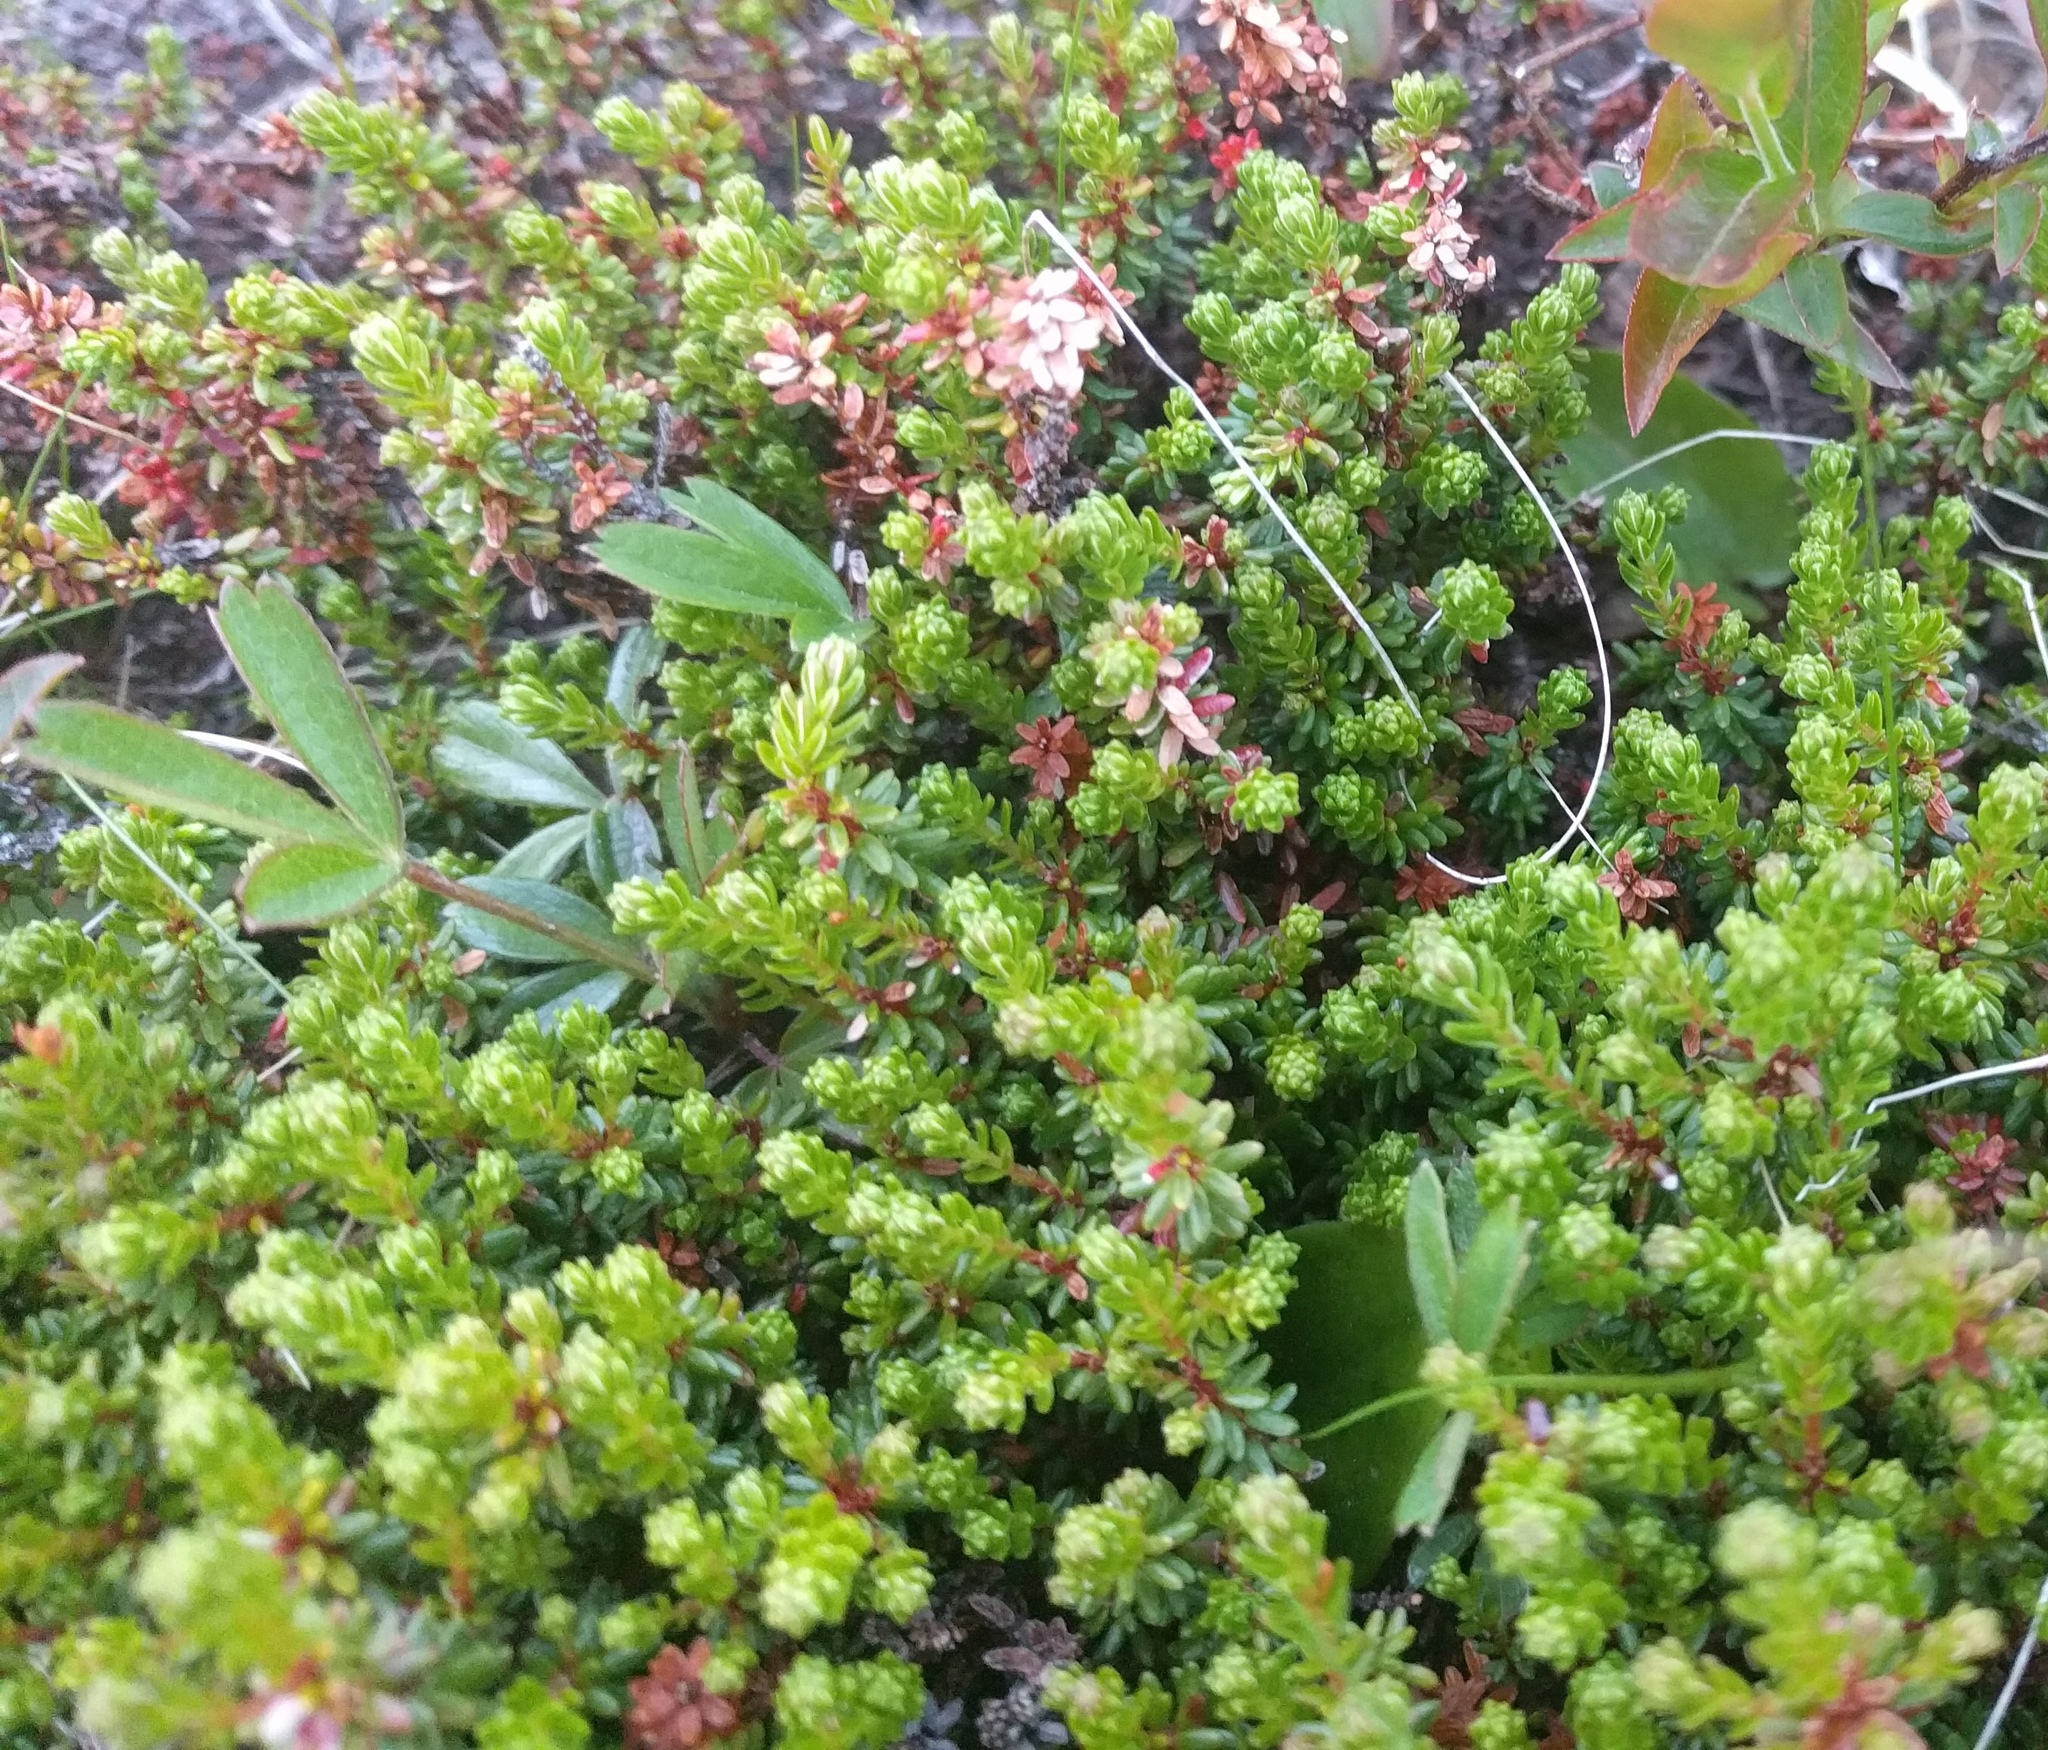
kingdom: Plantae
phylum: Tracheophyta
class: Magnoliopsida
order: Ericales
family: Ericaceae
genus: Empetrum
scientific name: Empetrum nigrum
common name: Black crowberry
